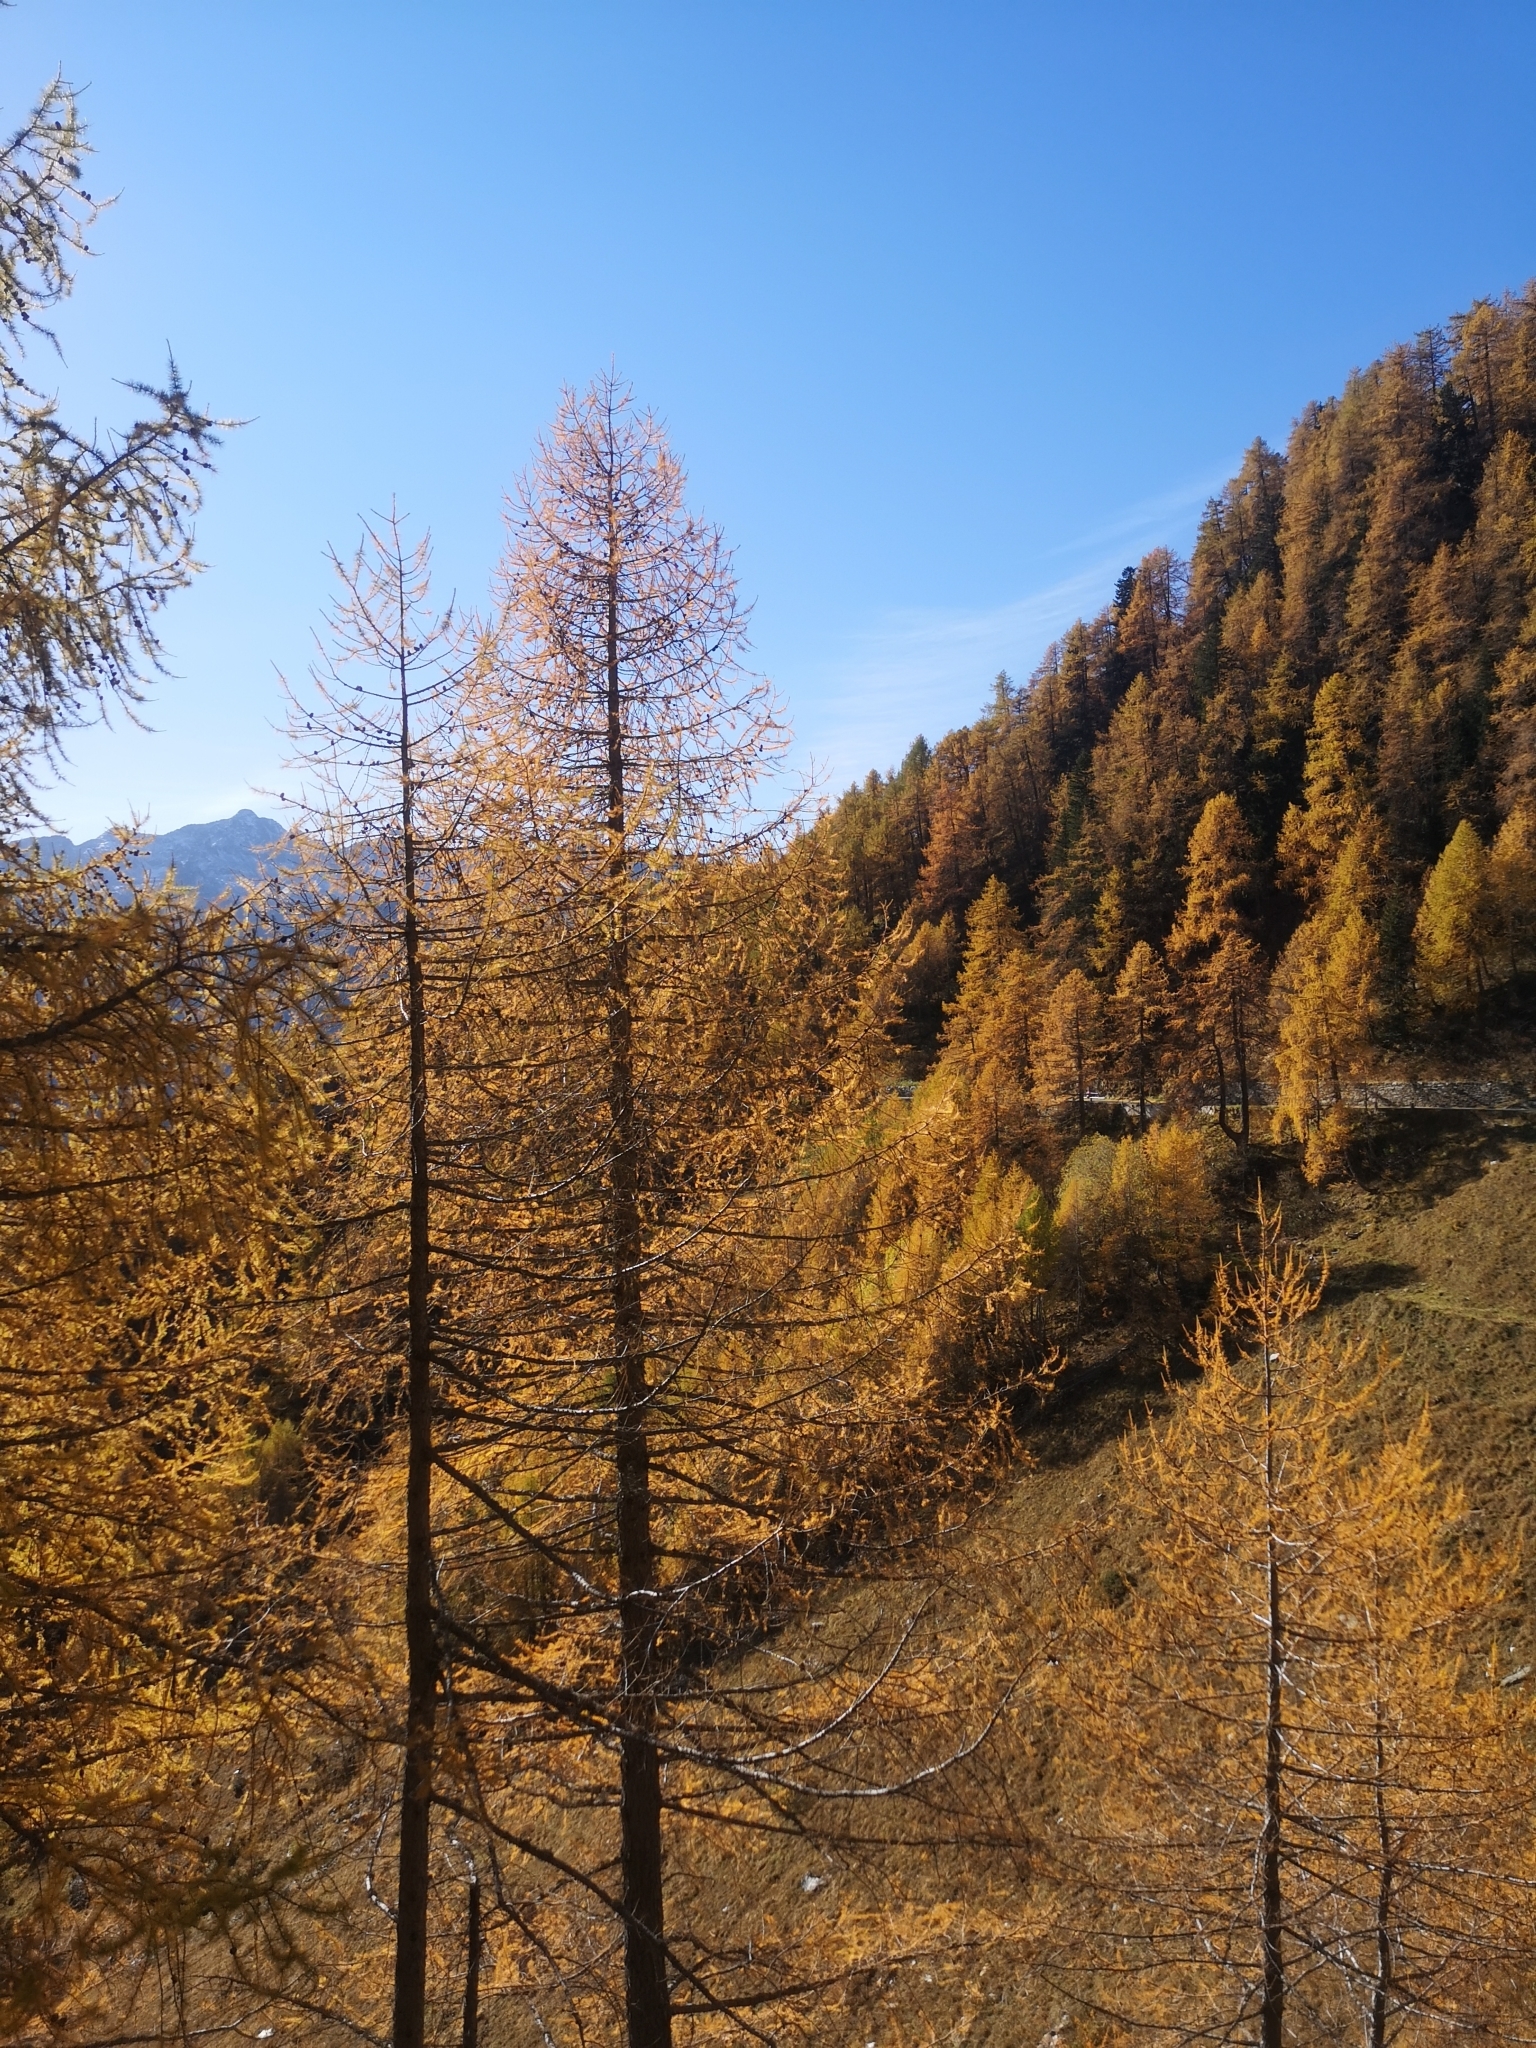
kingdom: Plantae
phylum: Tracheophyta
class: Pinopsida
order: Pinales
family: Pinaceae
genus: Larix
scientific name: Larix decidua
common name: European larch
